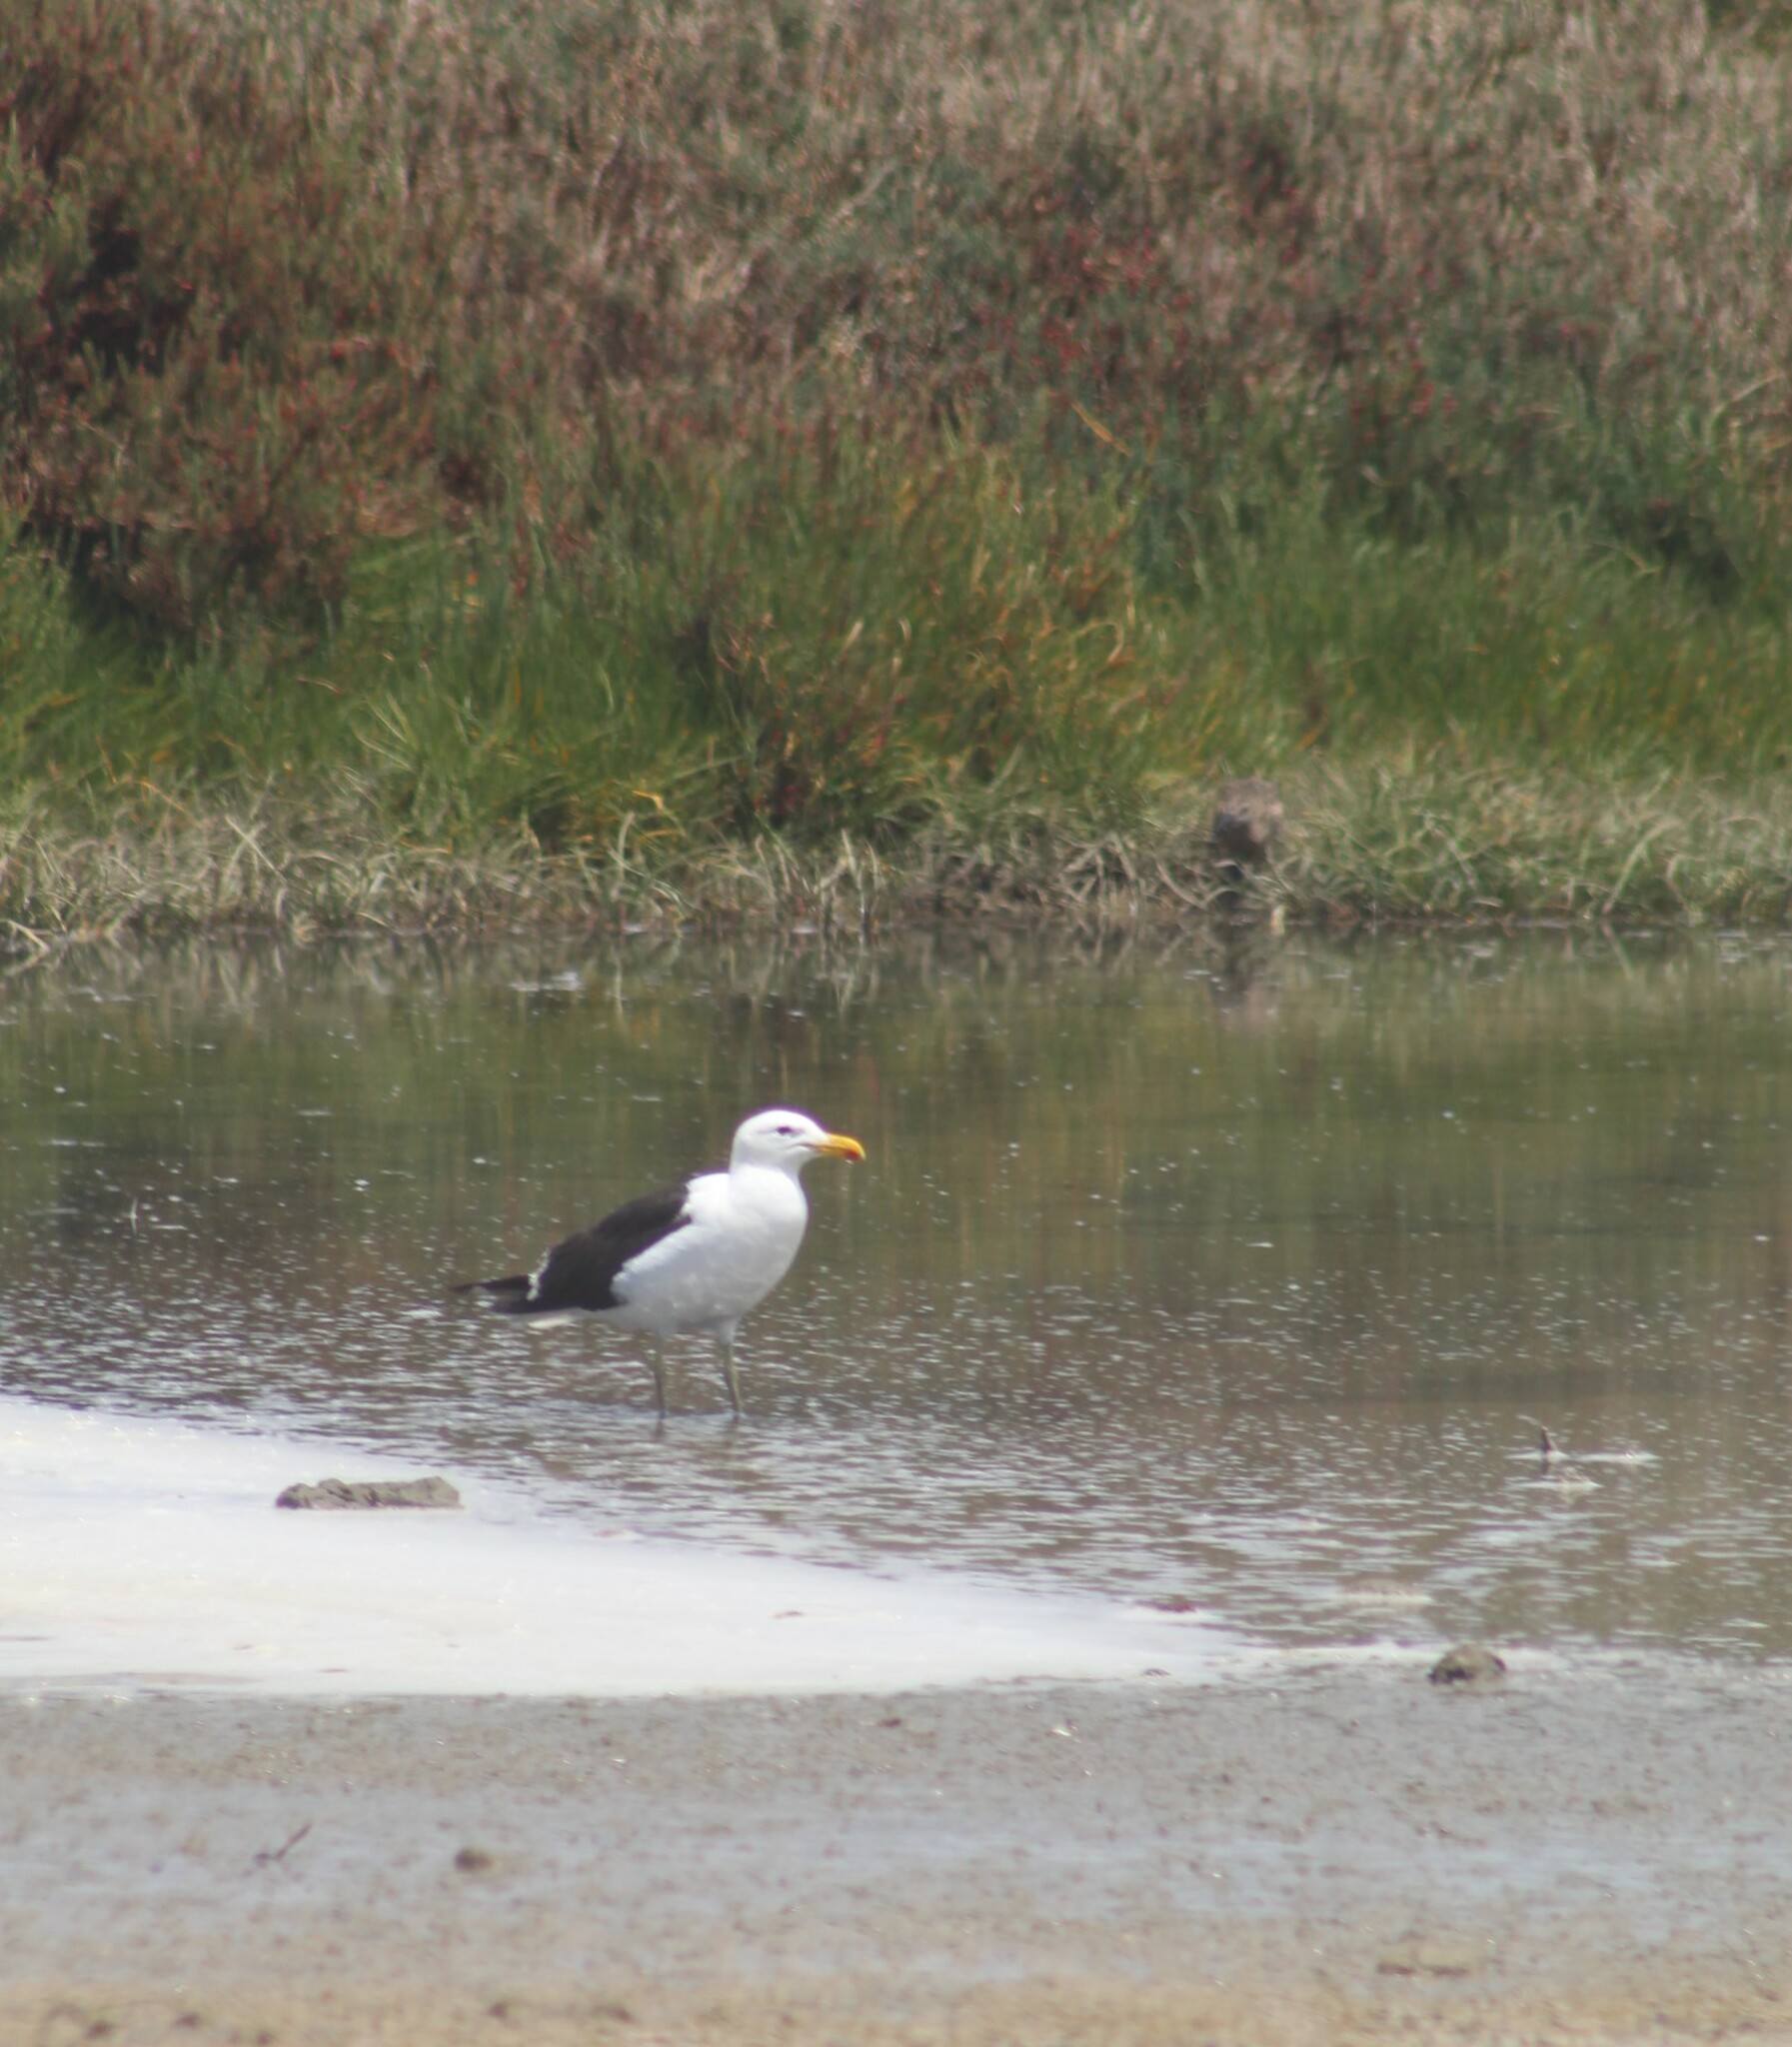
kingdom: Animalia
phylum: Chordata
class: Aves
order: Charadriiformes
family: Laridae
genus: Larus
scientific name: Larus dominicanus
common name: Kelp gull
